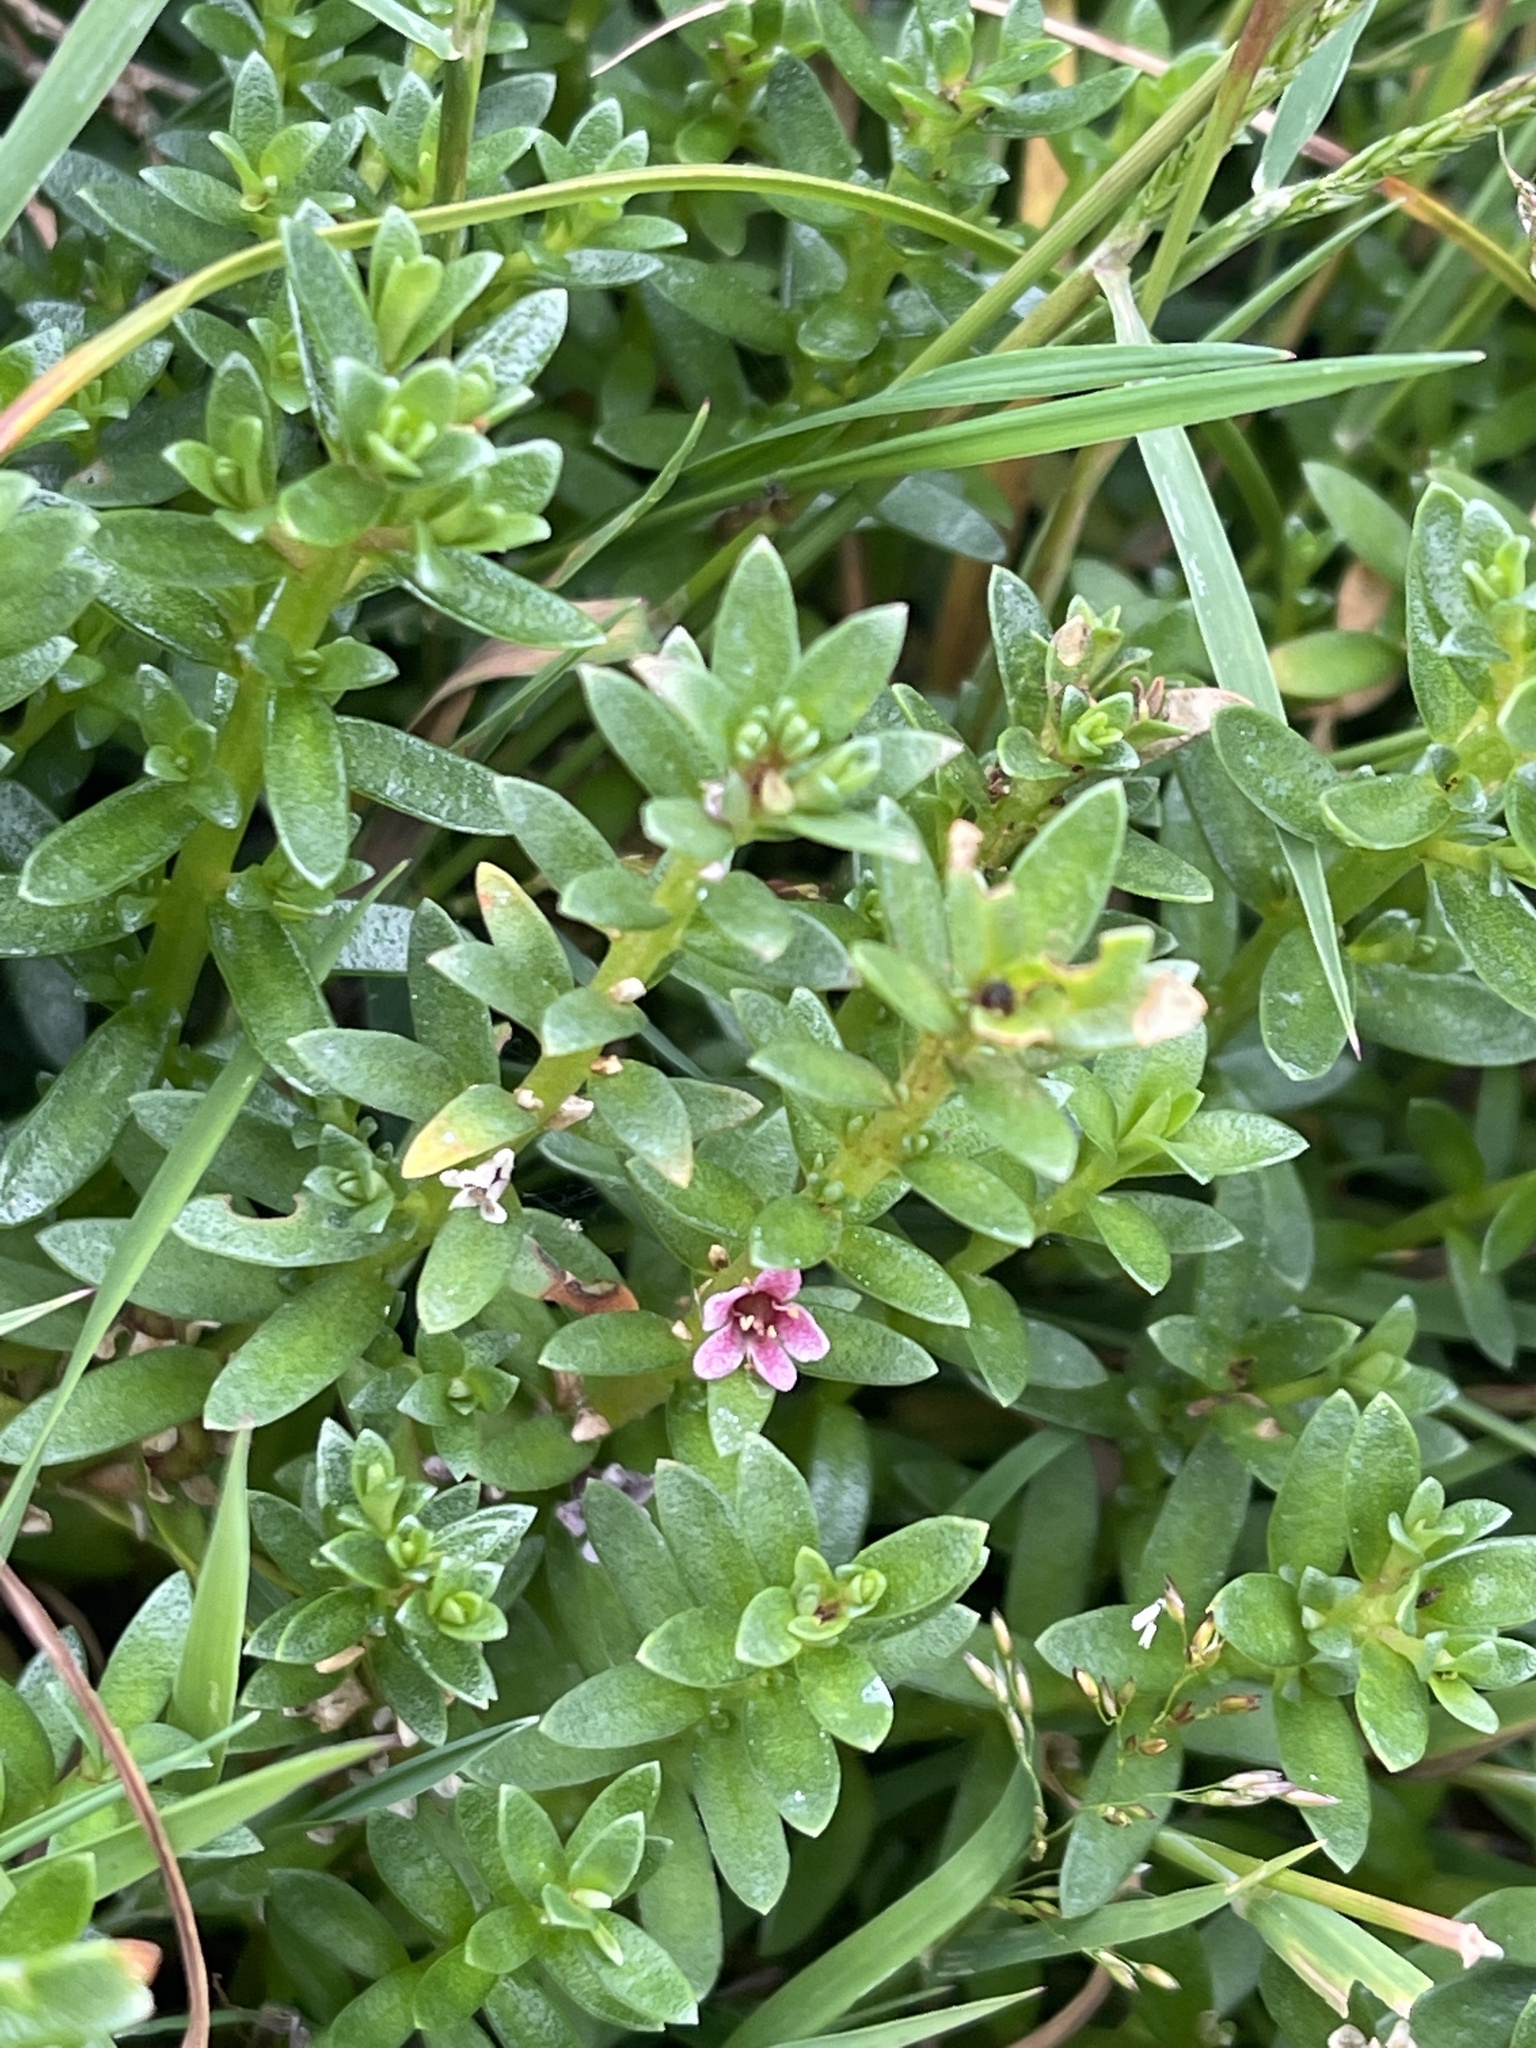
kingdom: Plantae
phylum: Tracheophyta
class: Magnoliopsida
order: Ericales
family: Primulaceae
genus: Lysimachia
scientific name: Lysimachia maritima
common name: Sea milkwort
